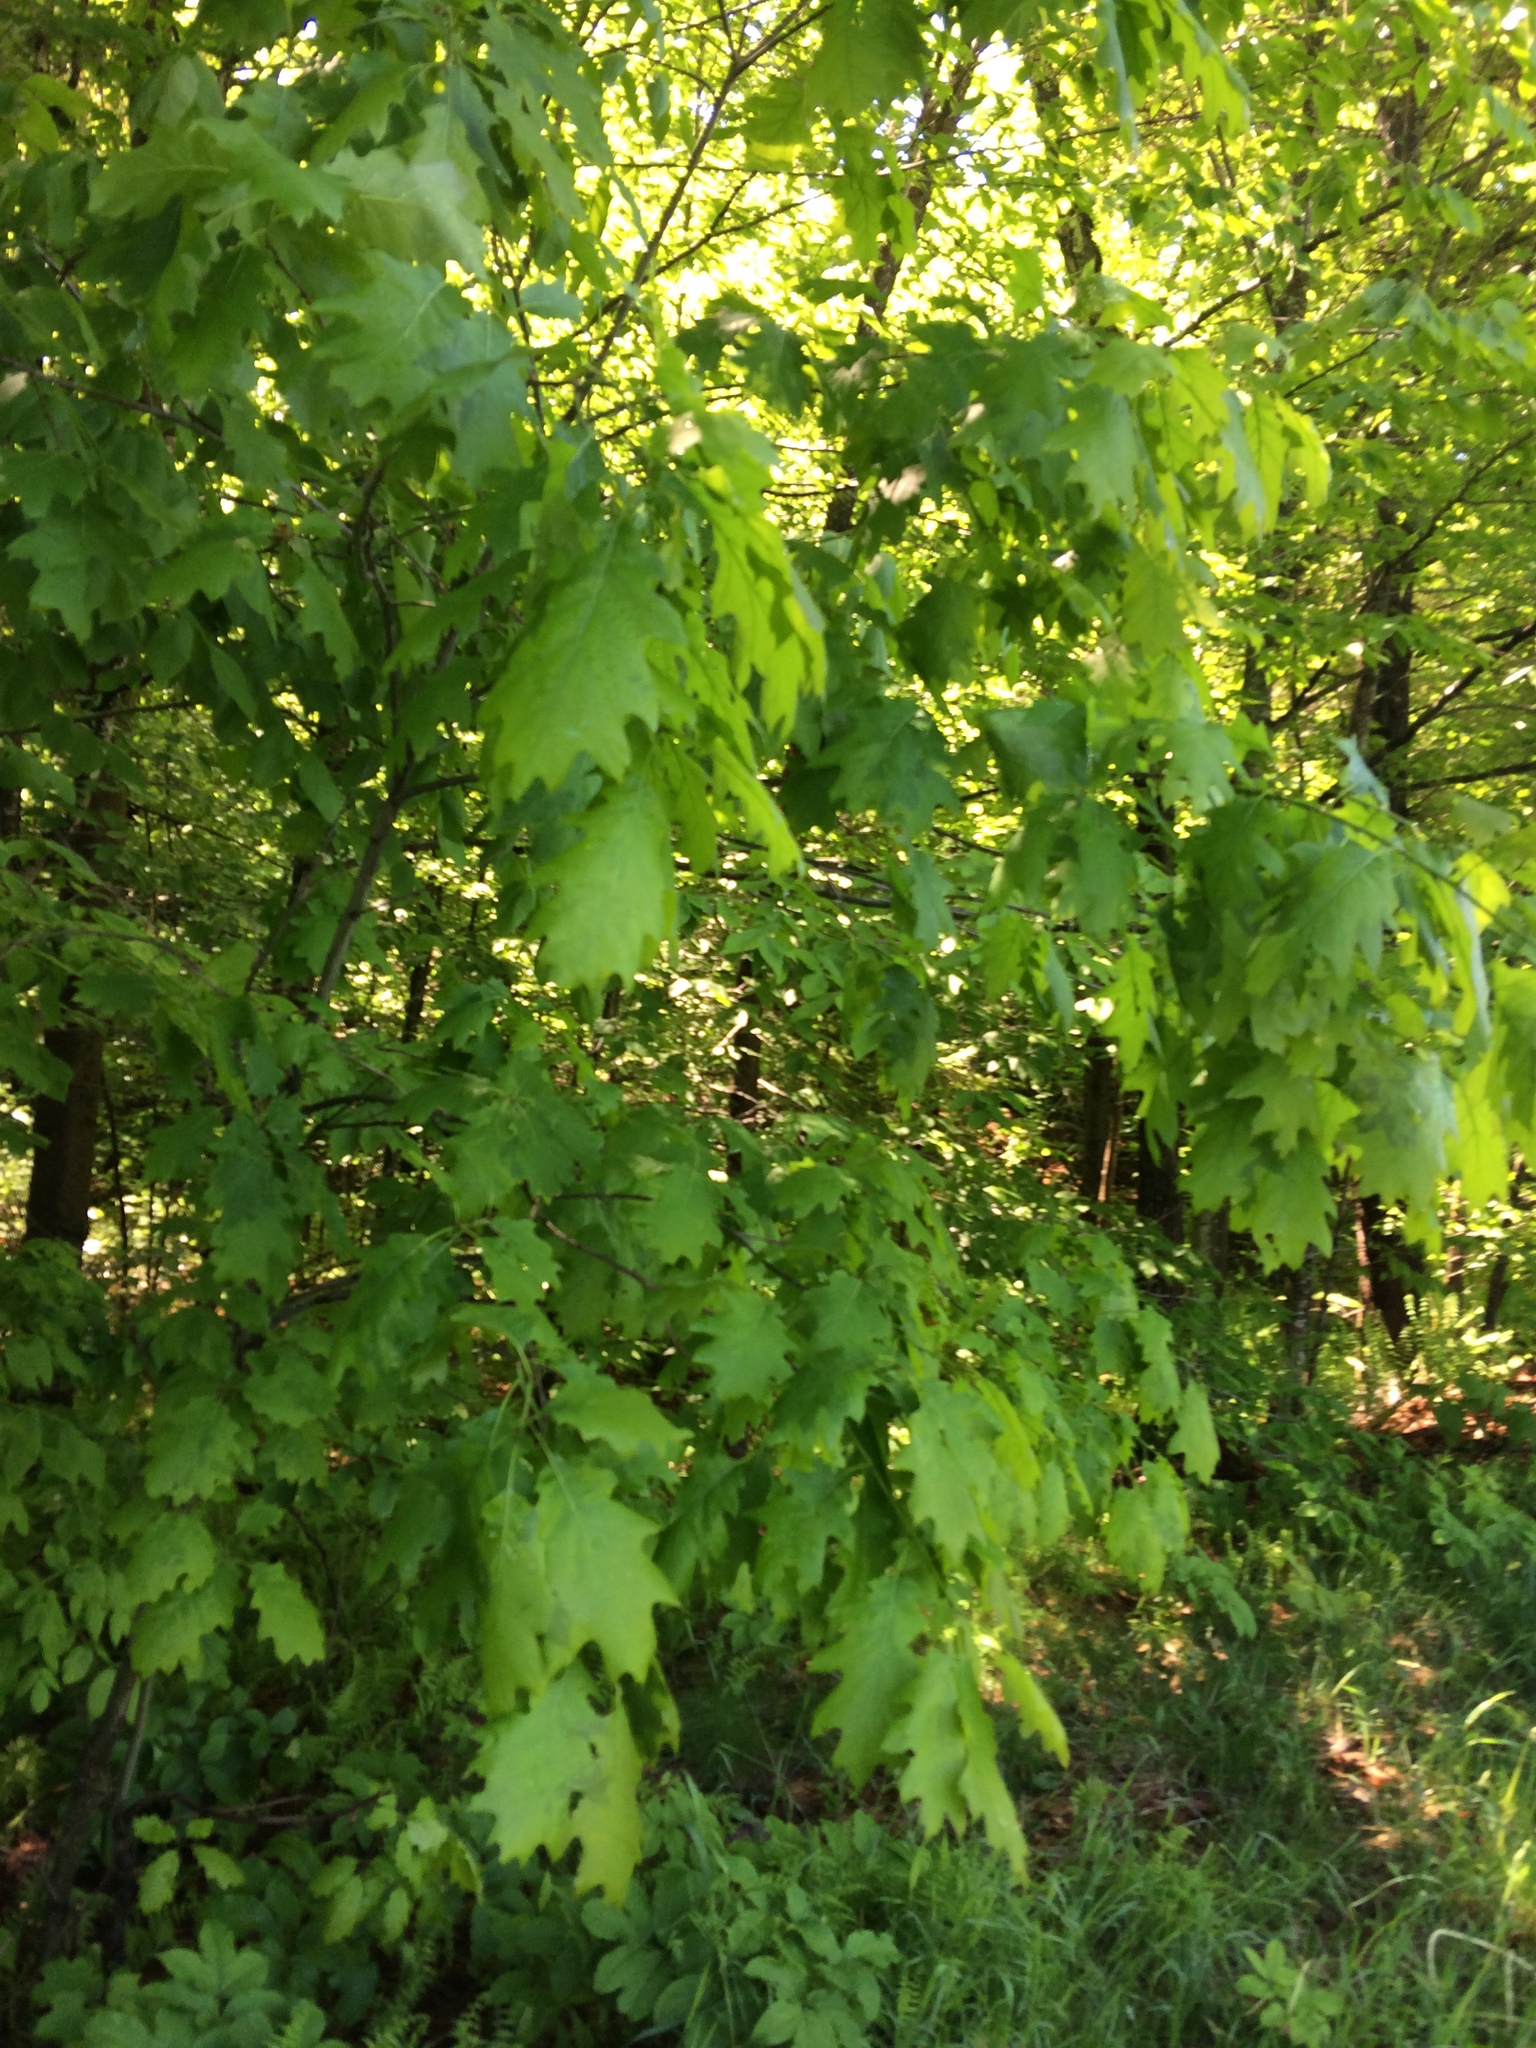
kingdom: Plantae
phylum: Tracheophyta
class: Magnoliopsida
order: Fagales
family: Fagaceae
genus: Quercus
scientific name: Quercus rubra
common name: Red oak
